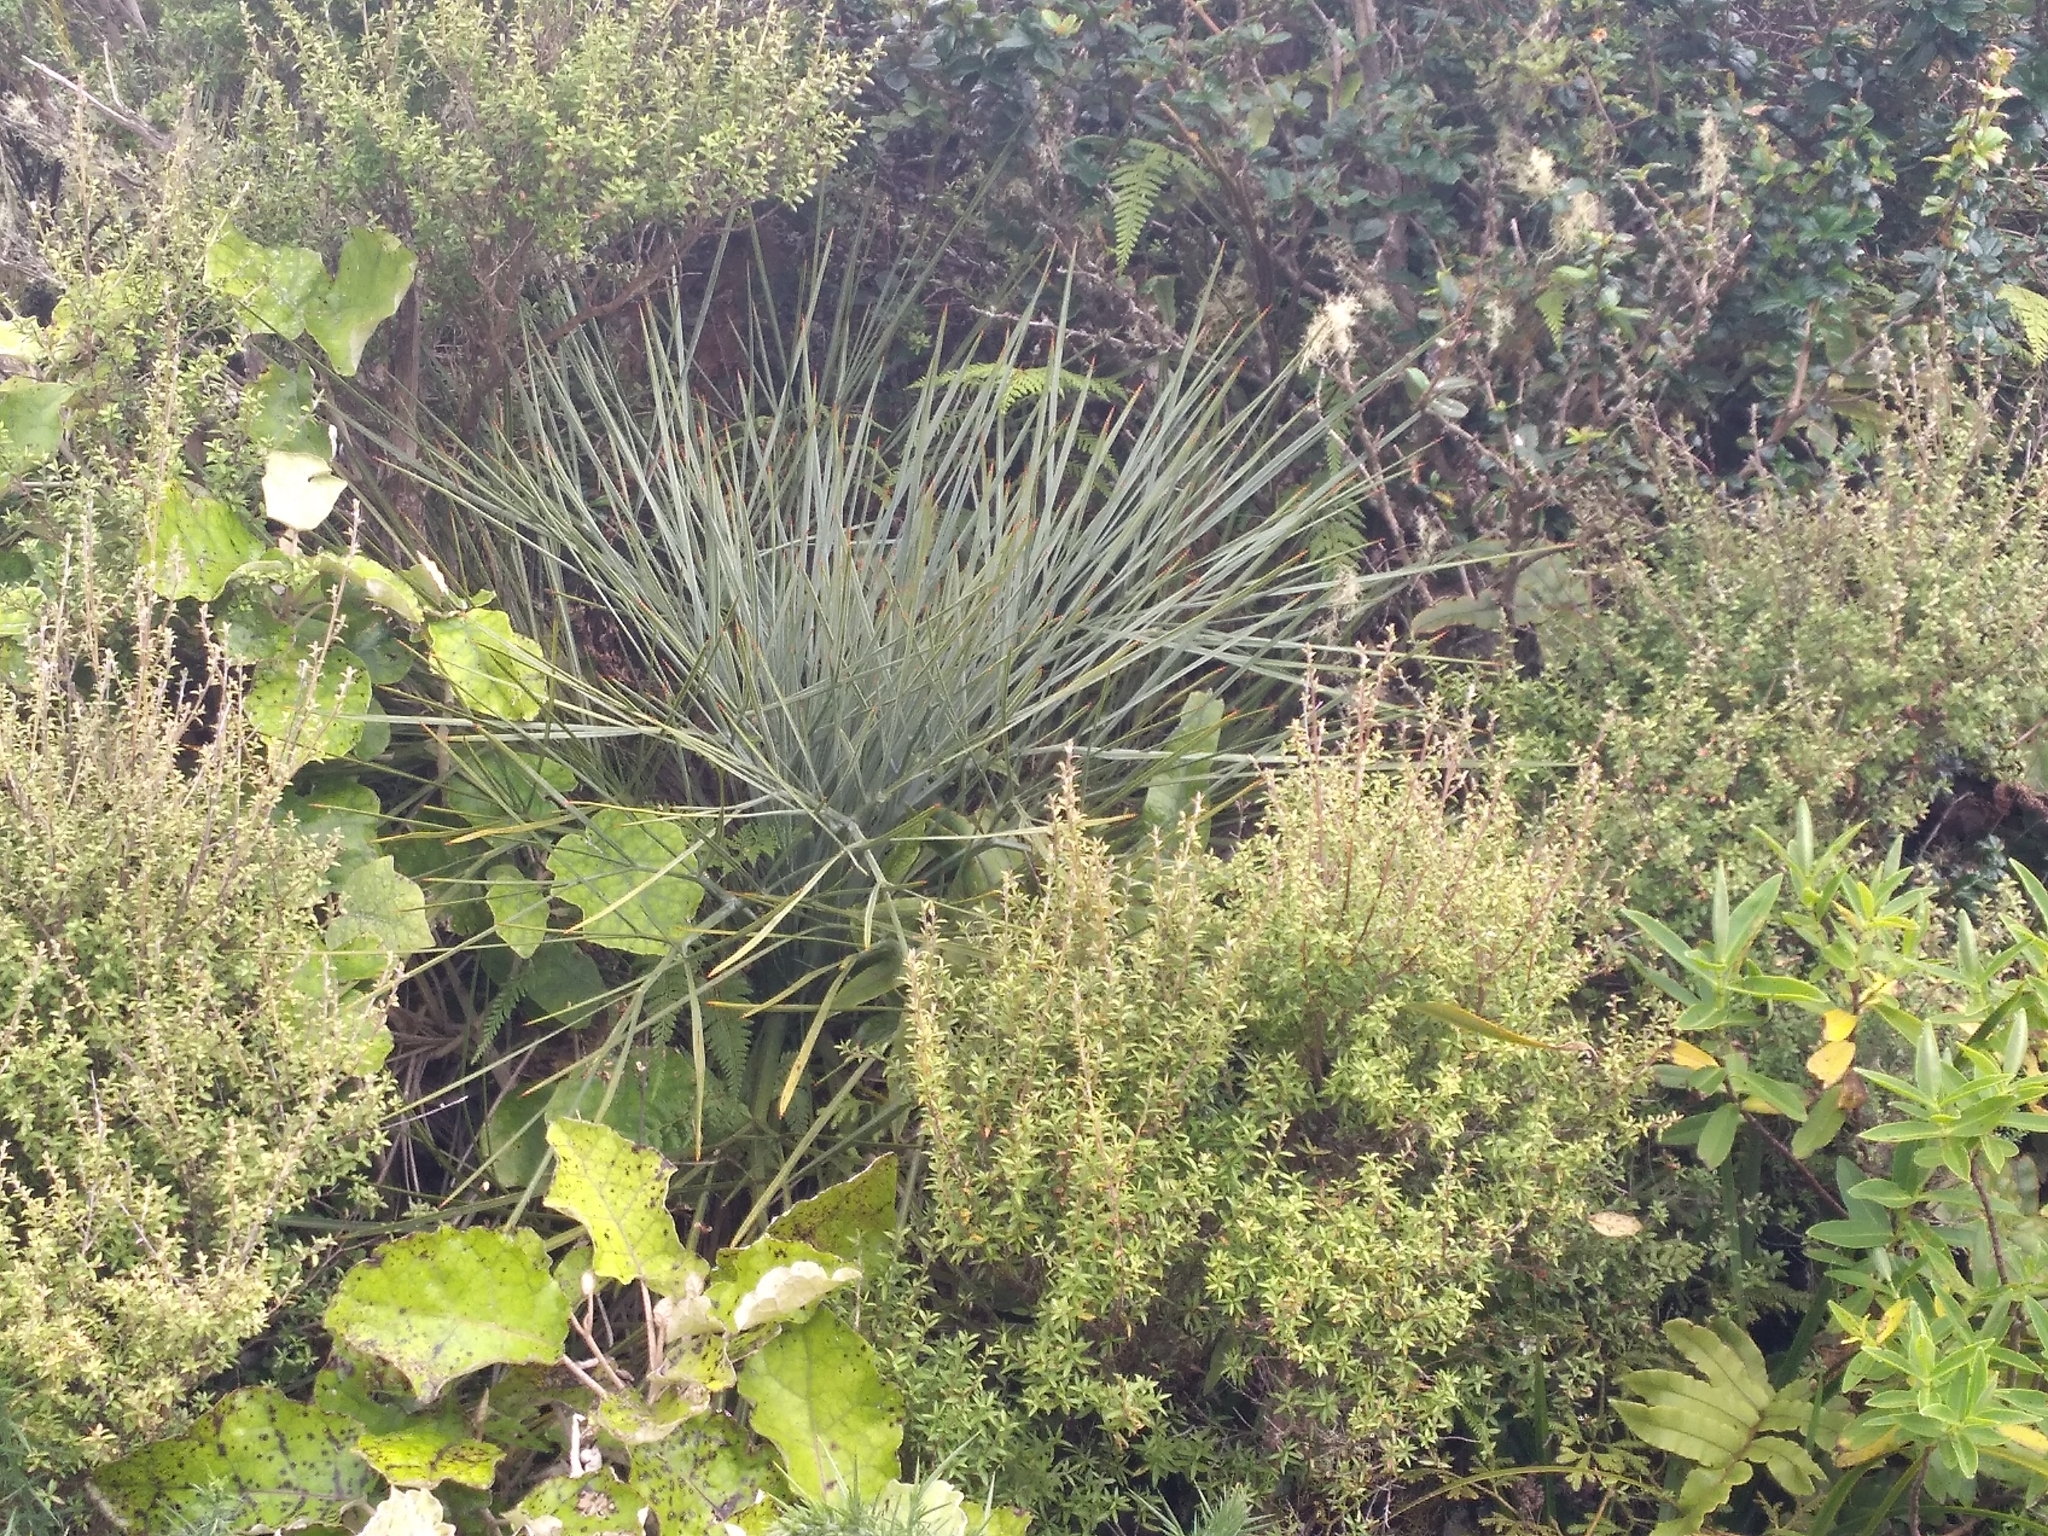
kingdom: Plantae
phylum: Tracheophyta
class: Magnoliopsida
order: Apiales
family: Apiaceae
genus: Aciphylla
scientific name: Aciphylla squarrosa
